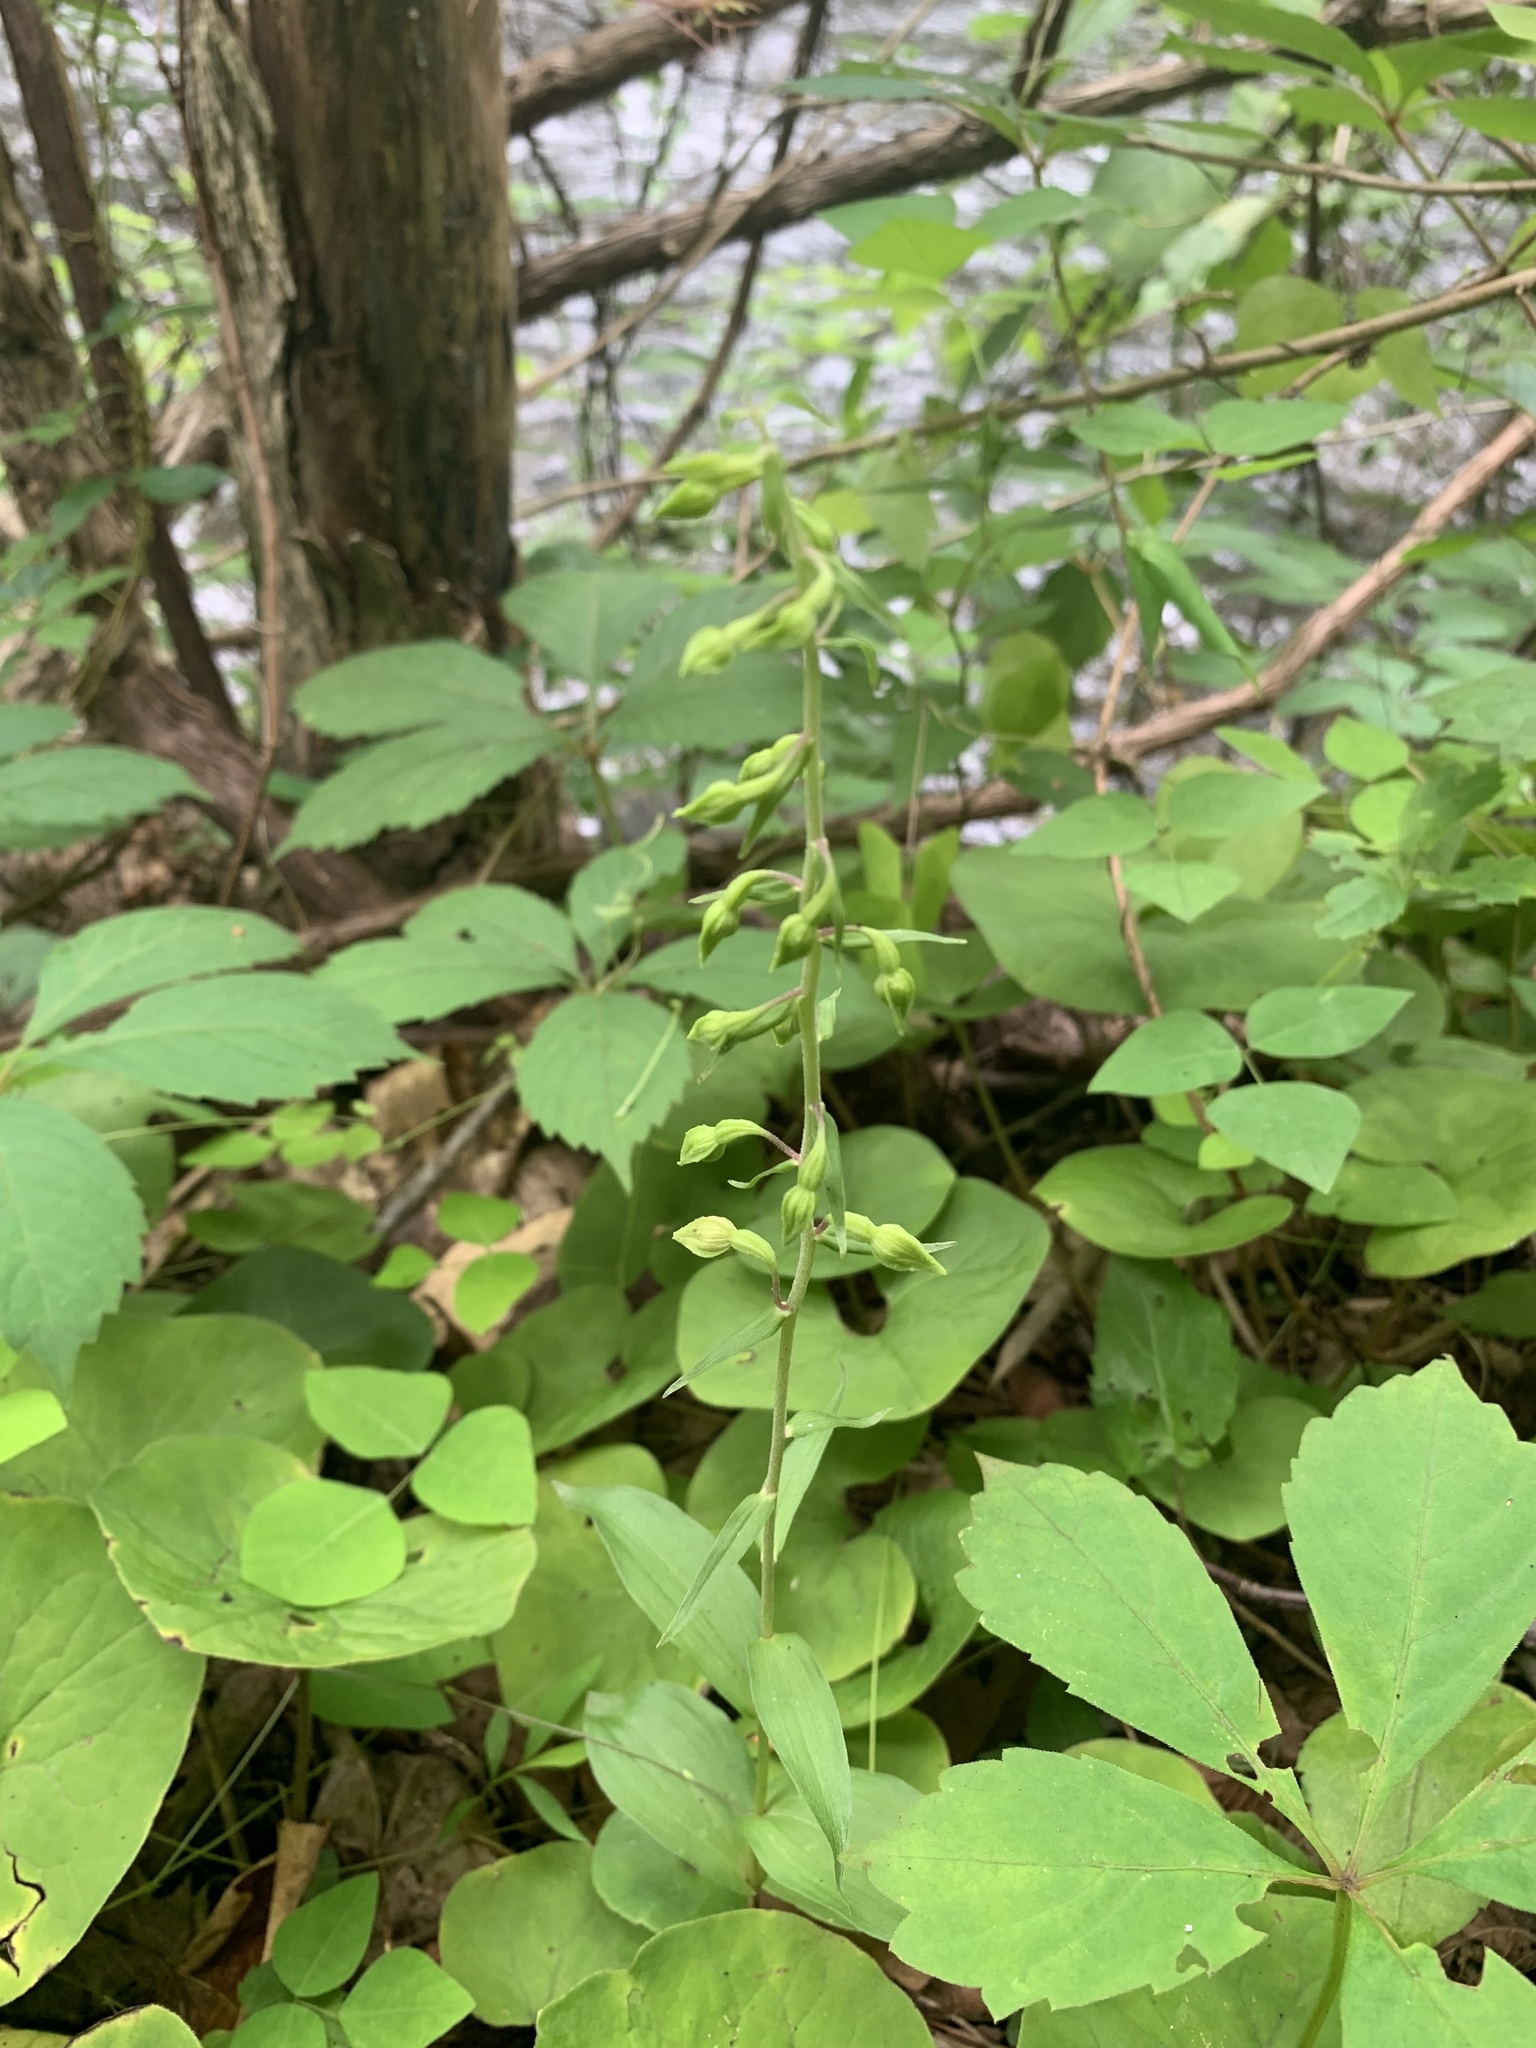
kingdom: Plantae
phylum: Tracheophyta
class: Liliopsida
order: Asparagales
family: Orchidaceae
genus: Epipactis
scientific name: Epipactis helleborine
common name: Broad-leaved helleborine
